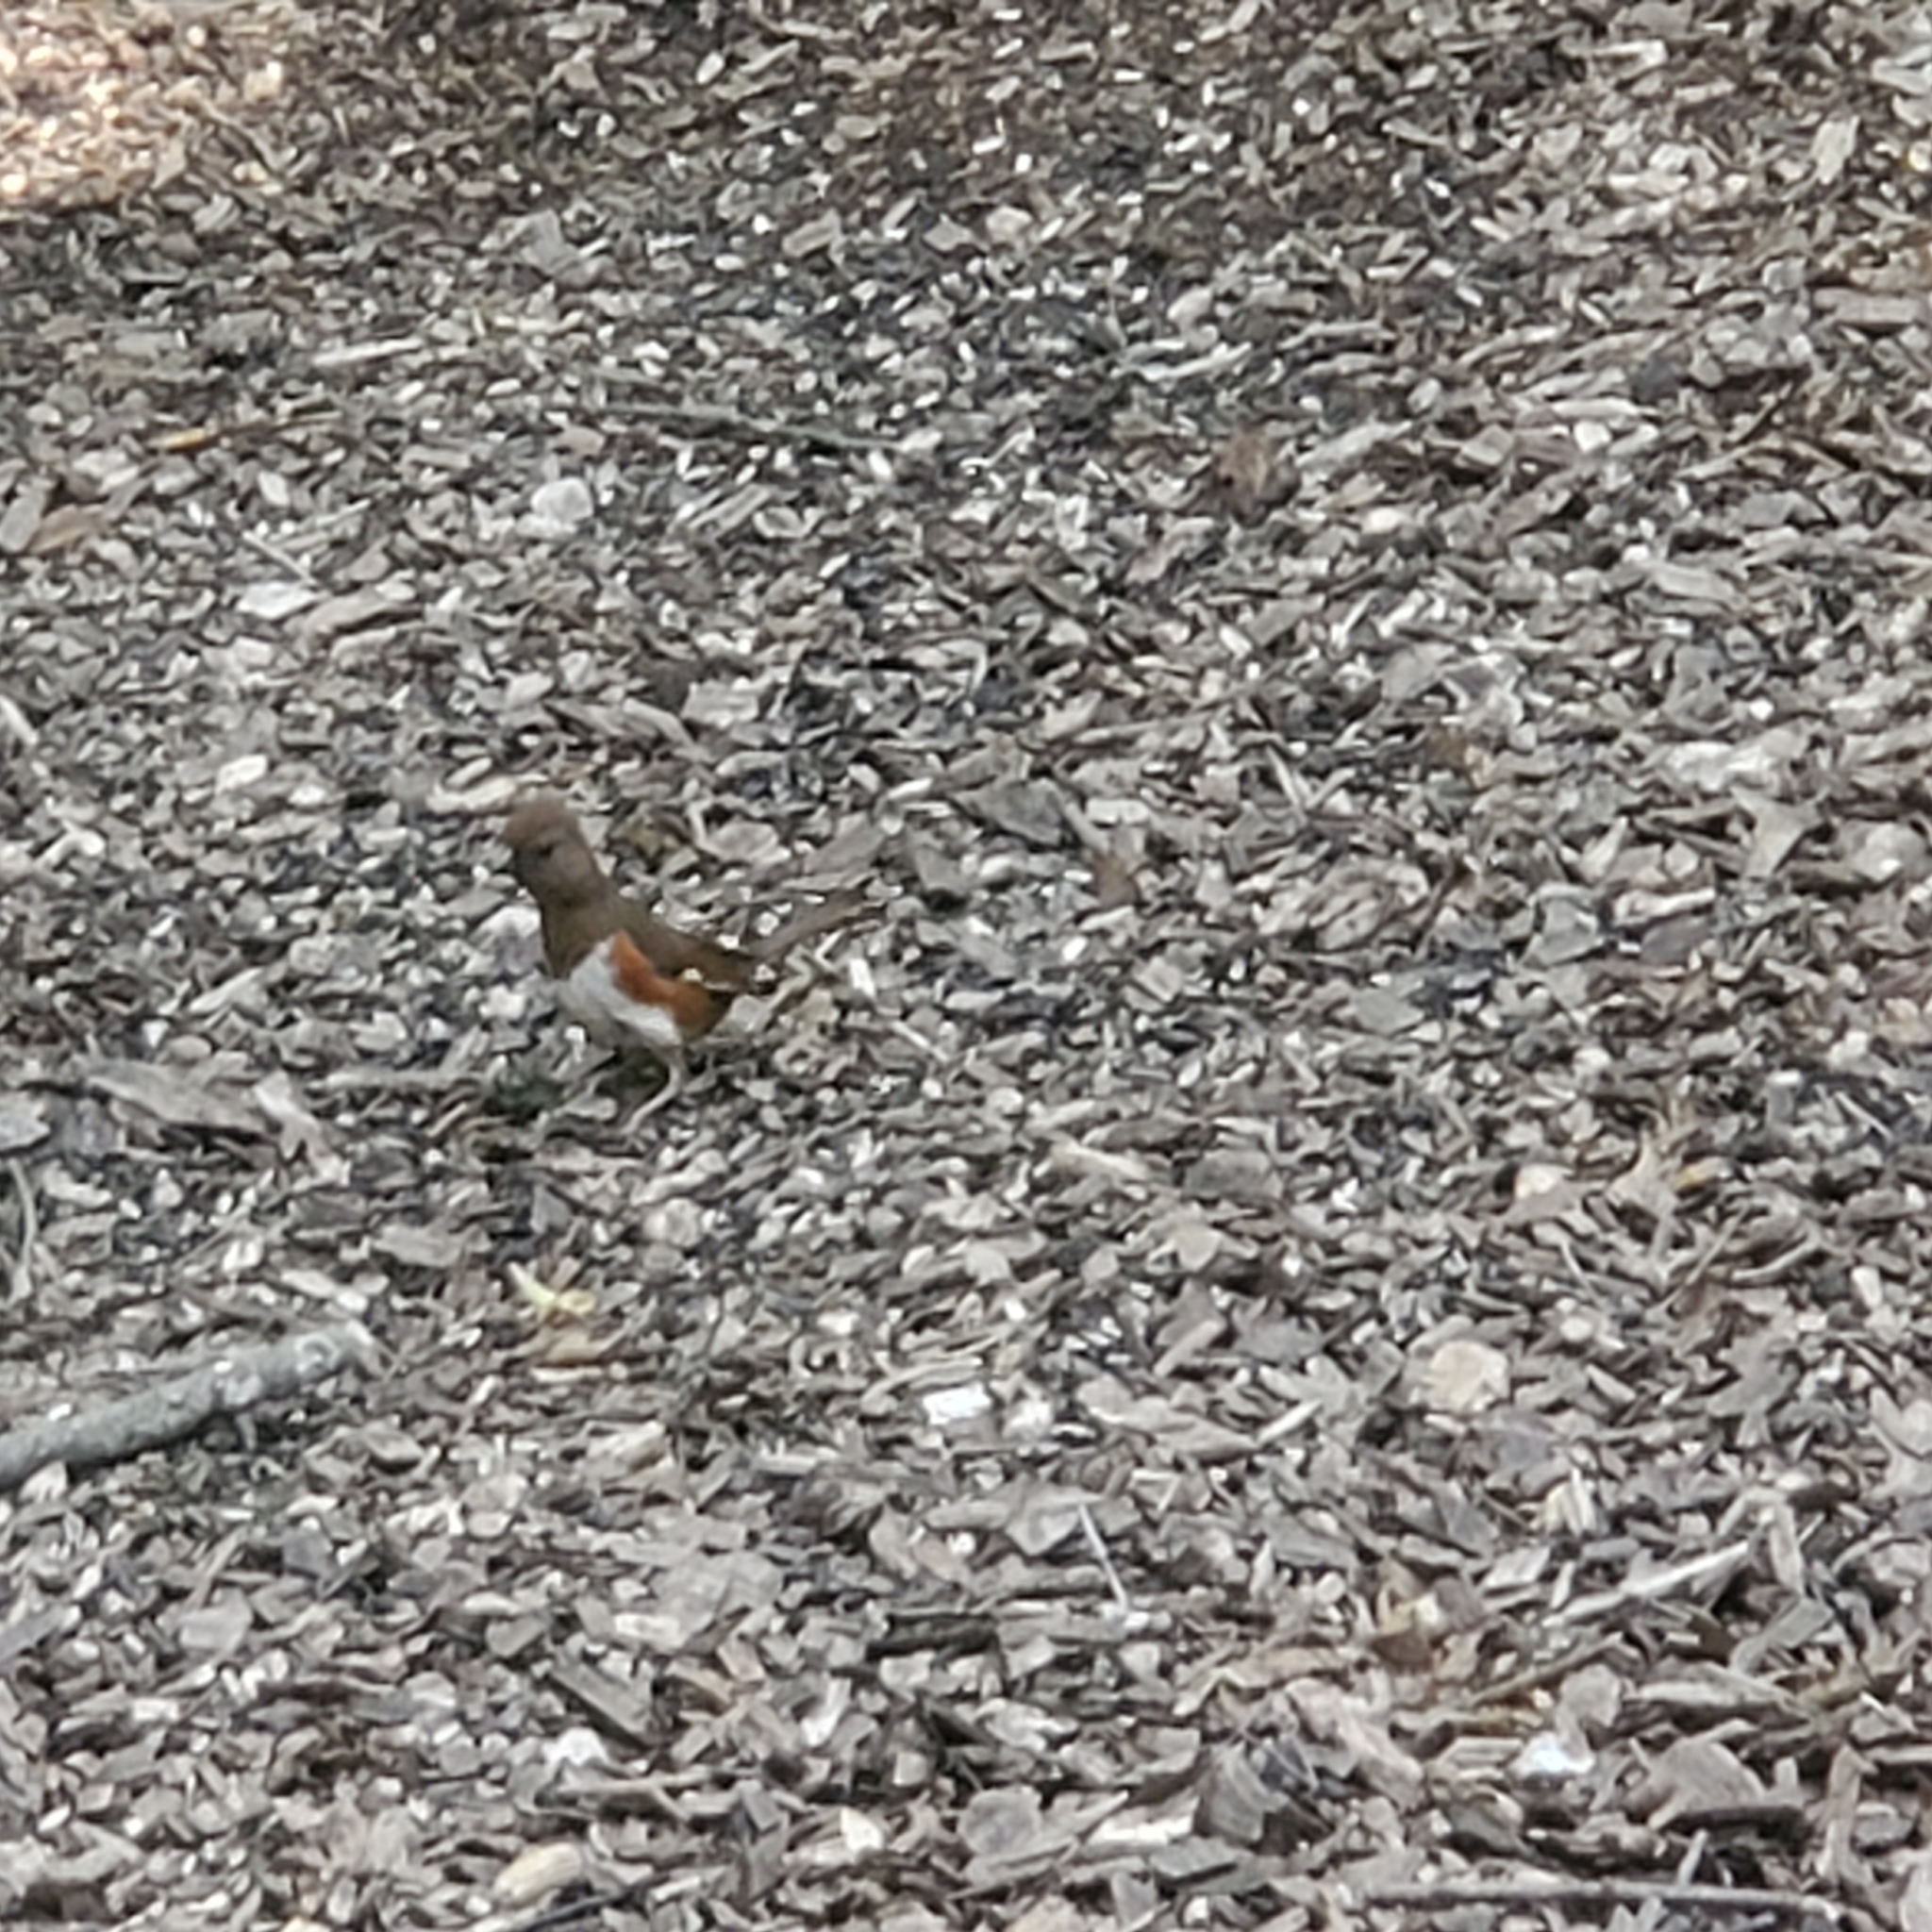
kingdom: Animalia
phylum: Chordata
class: Aves
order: Passeriformes
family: Passerellidae
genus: Pipilo
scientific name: Pipilo erythrophthalmus
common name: Eastern towhee
